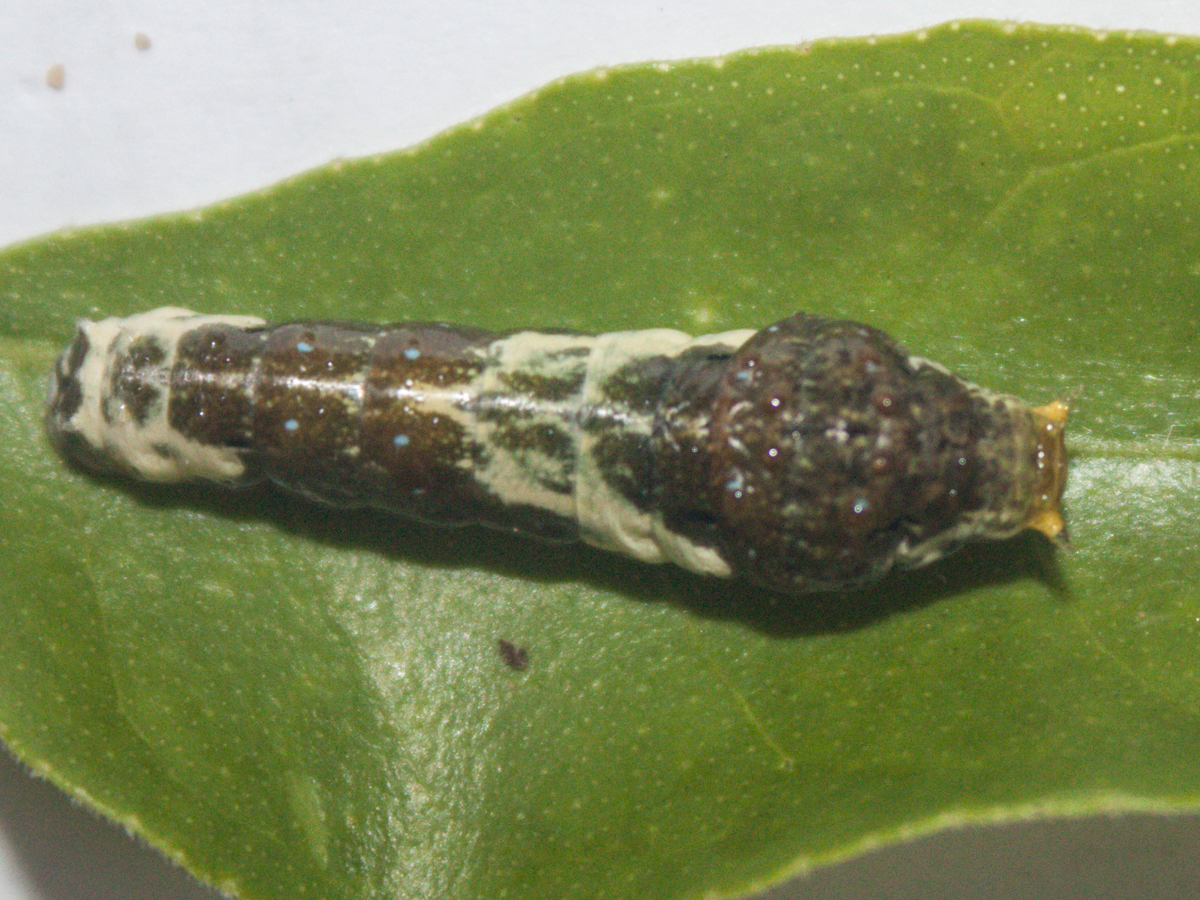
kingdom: Animalia
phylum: Arthropoda
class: Insecta
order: Lepidoptera
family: Papilionidae
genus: Papilio
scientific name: Papilio polytes
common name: Common mormon
